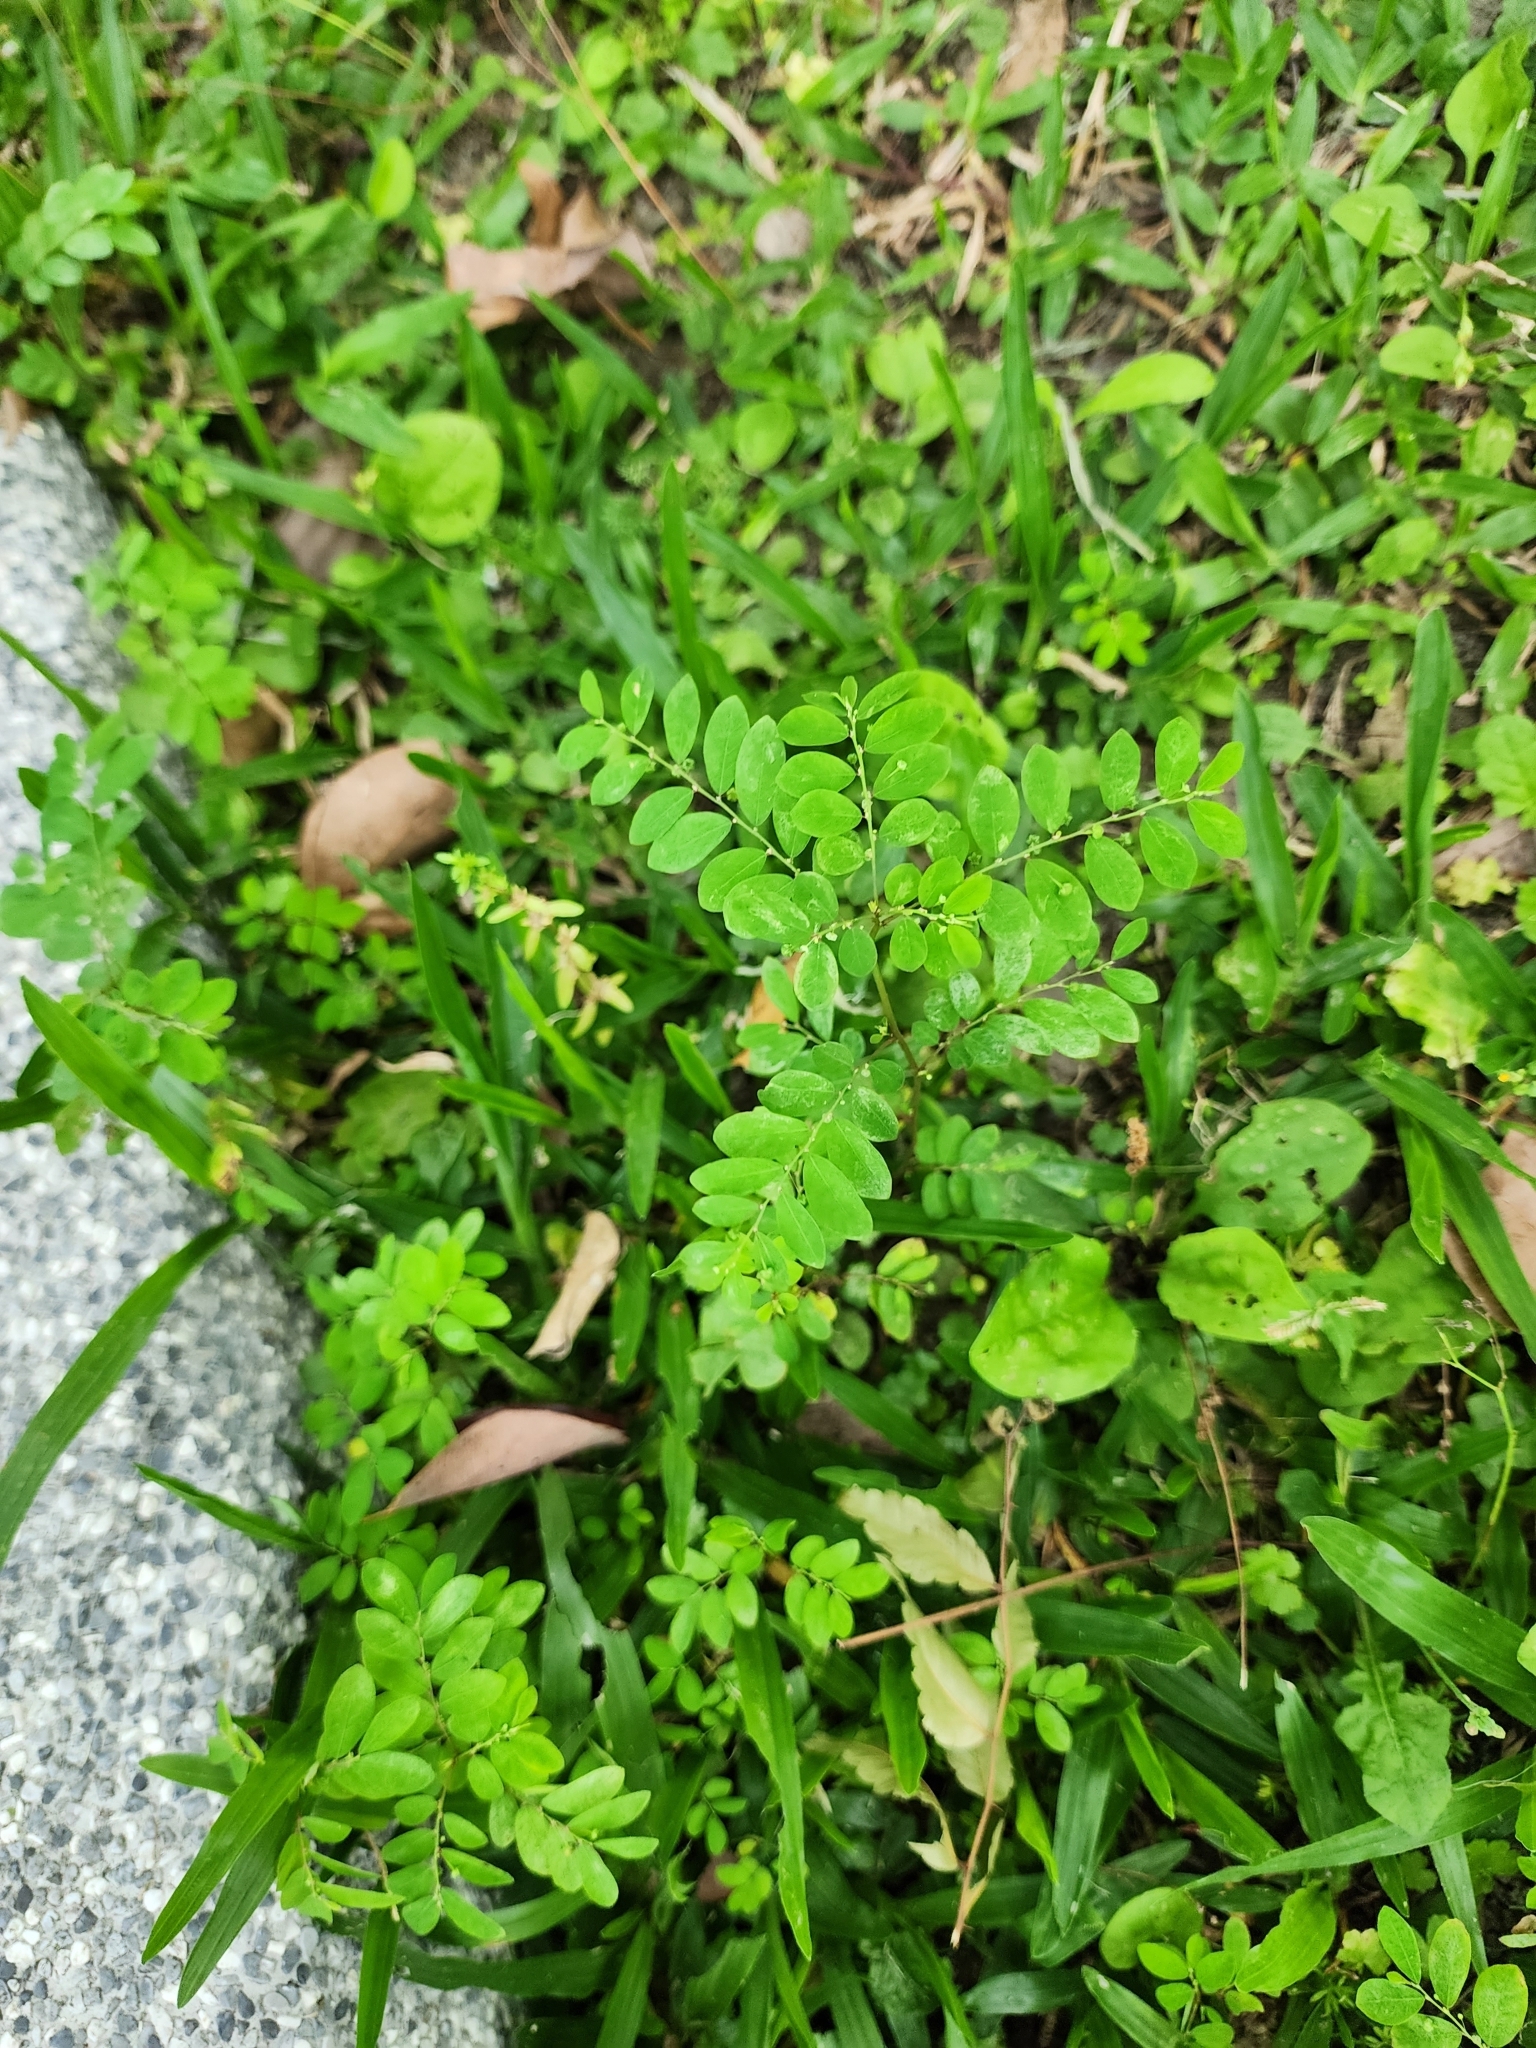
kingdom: Plantae
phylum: Tracheophyta
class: Magnoliopsida
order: Malpighiales
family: Phyllanthaceae
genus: Phyllanthus
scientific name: Phyllanthus tenellus
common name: Mascarene island leaf-flower
